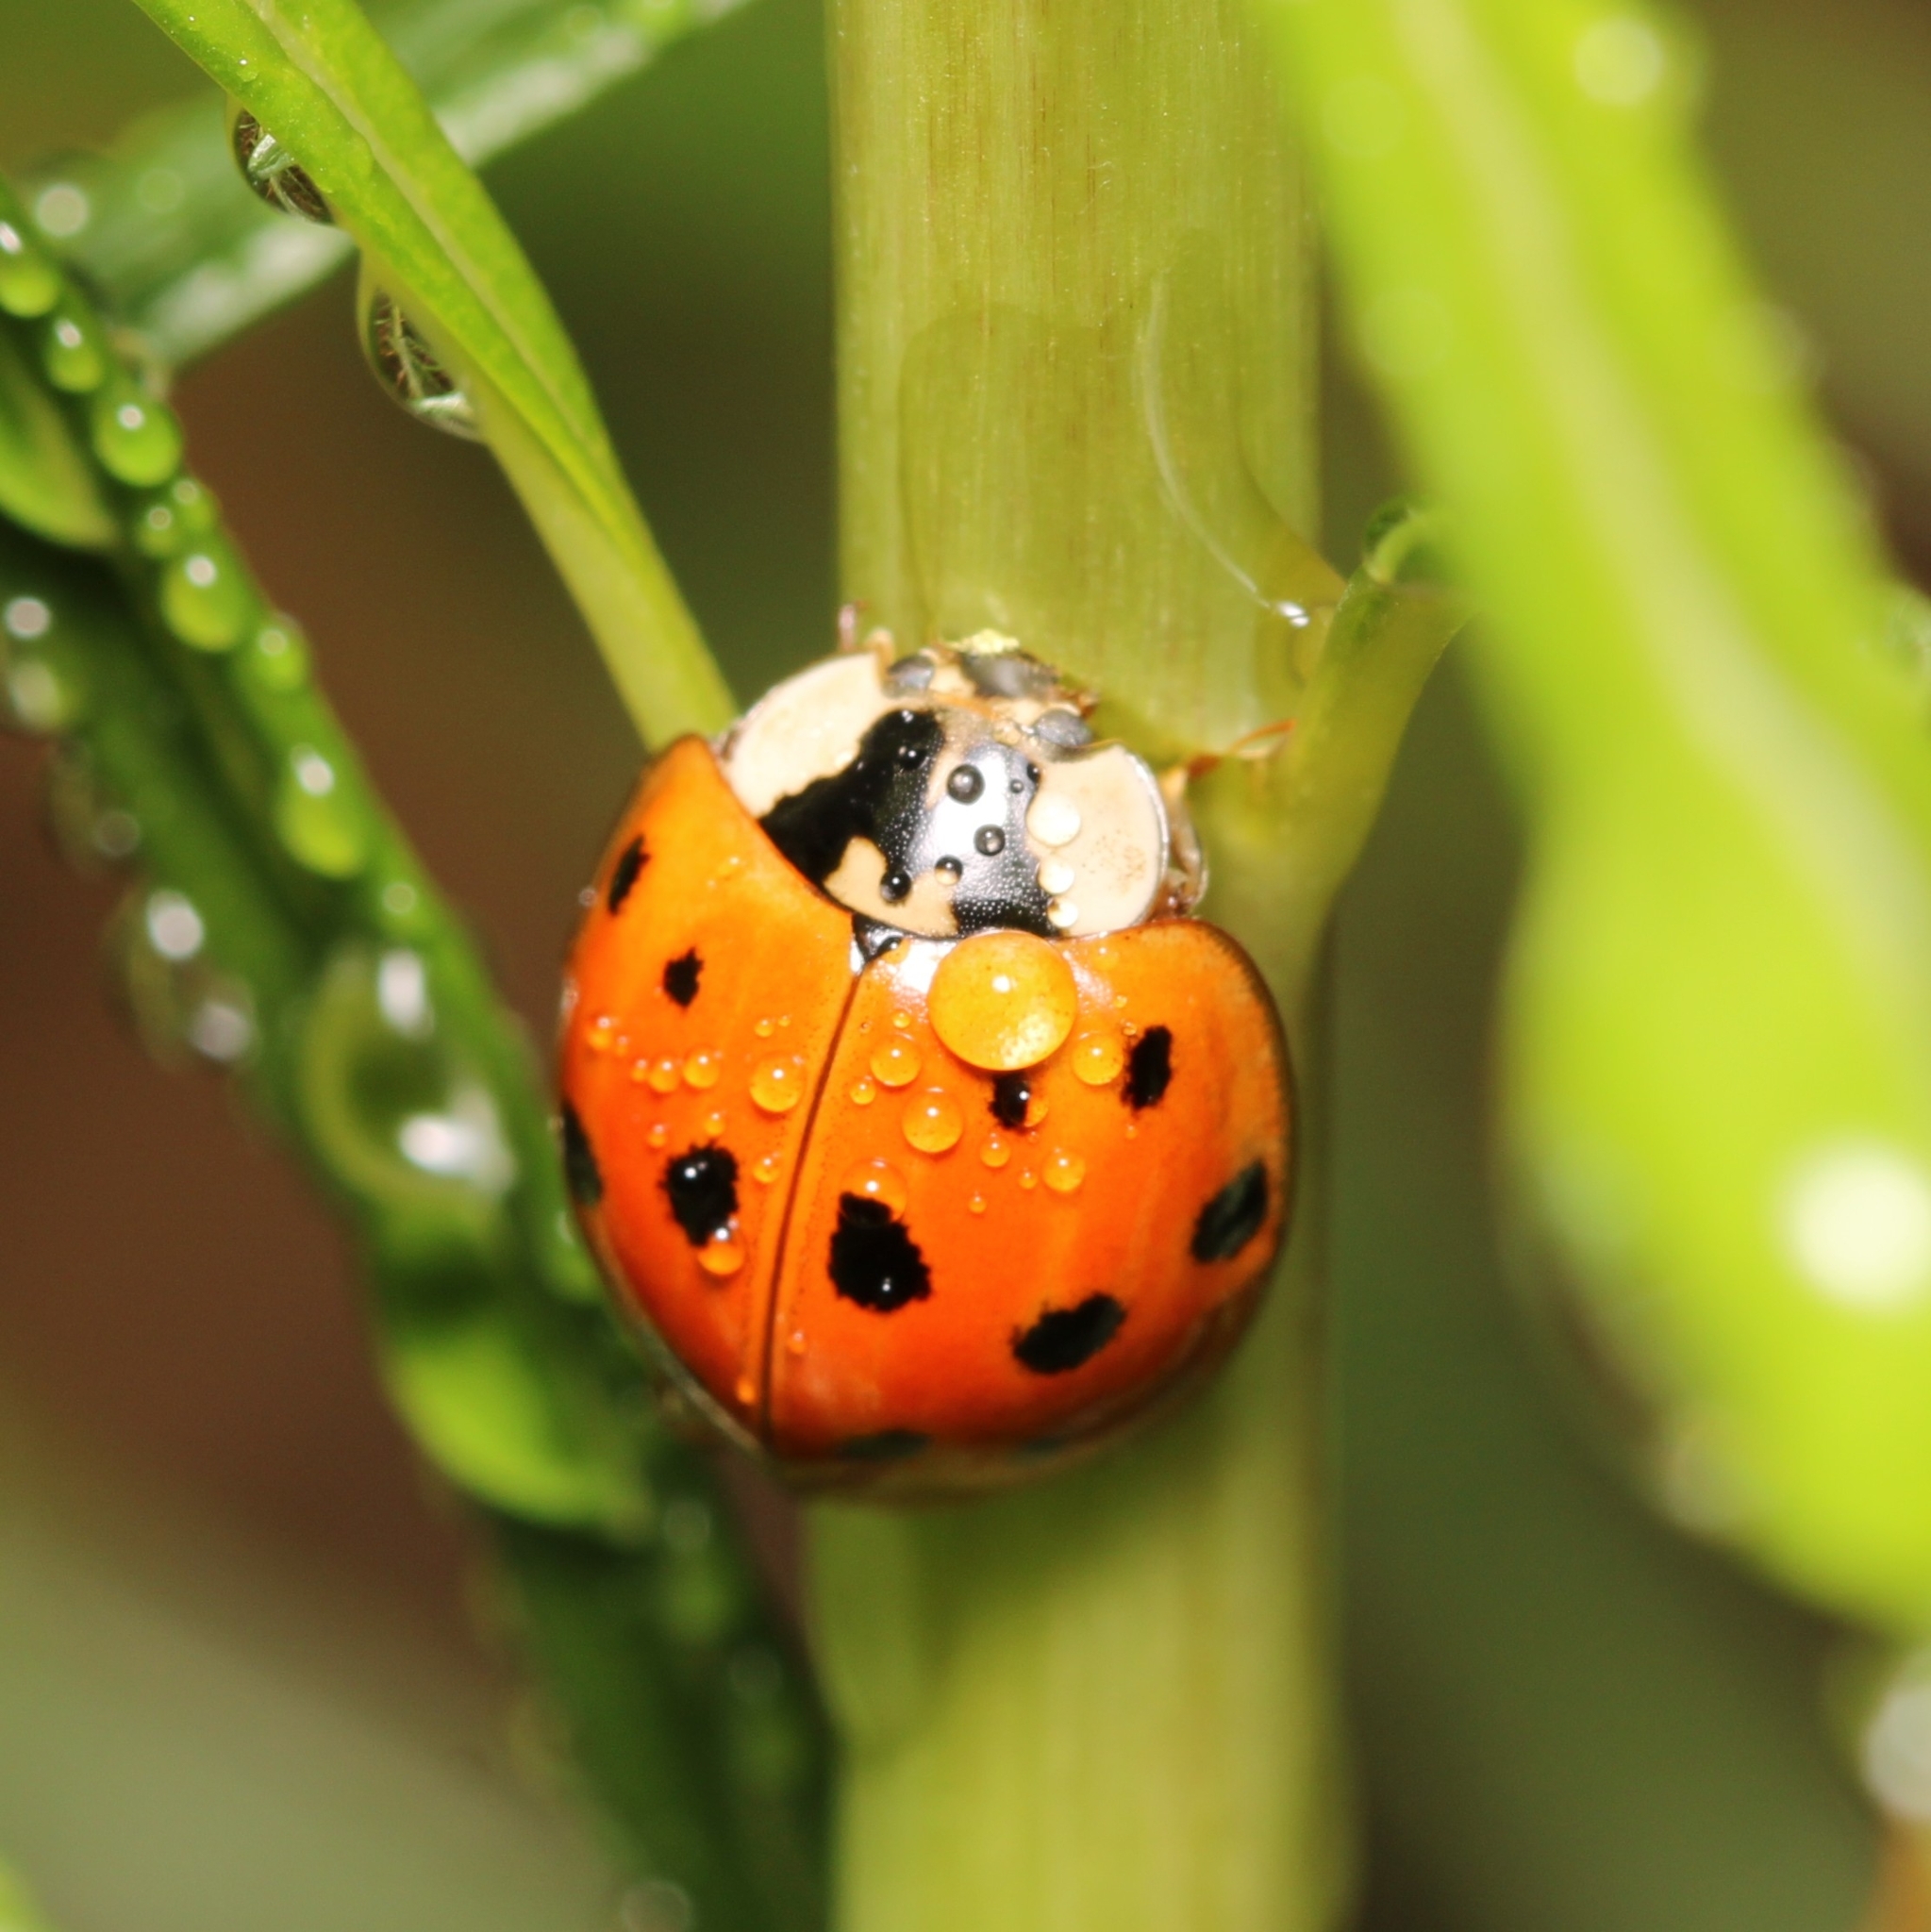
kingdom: Animalia
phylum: Arthropoda
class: Insecta
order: Coleoptera
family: Coccinellidae
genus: Harmonia
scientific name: Harmonia axyridis
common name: Harlequin ladybird
